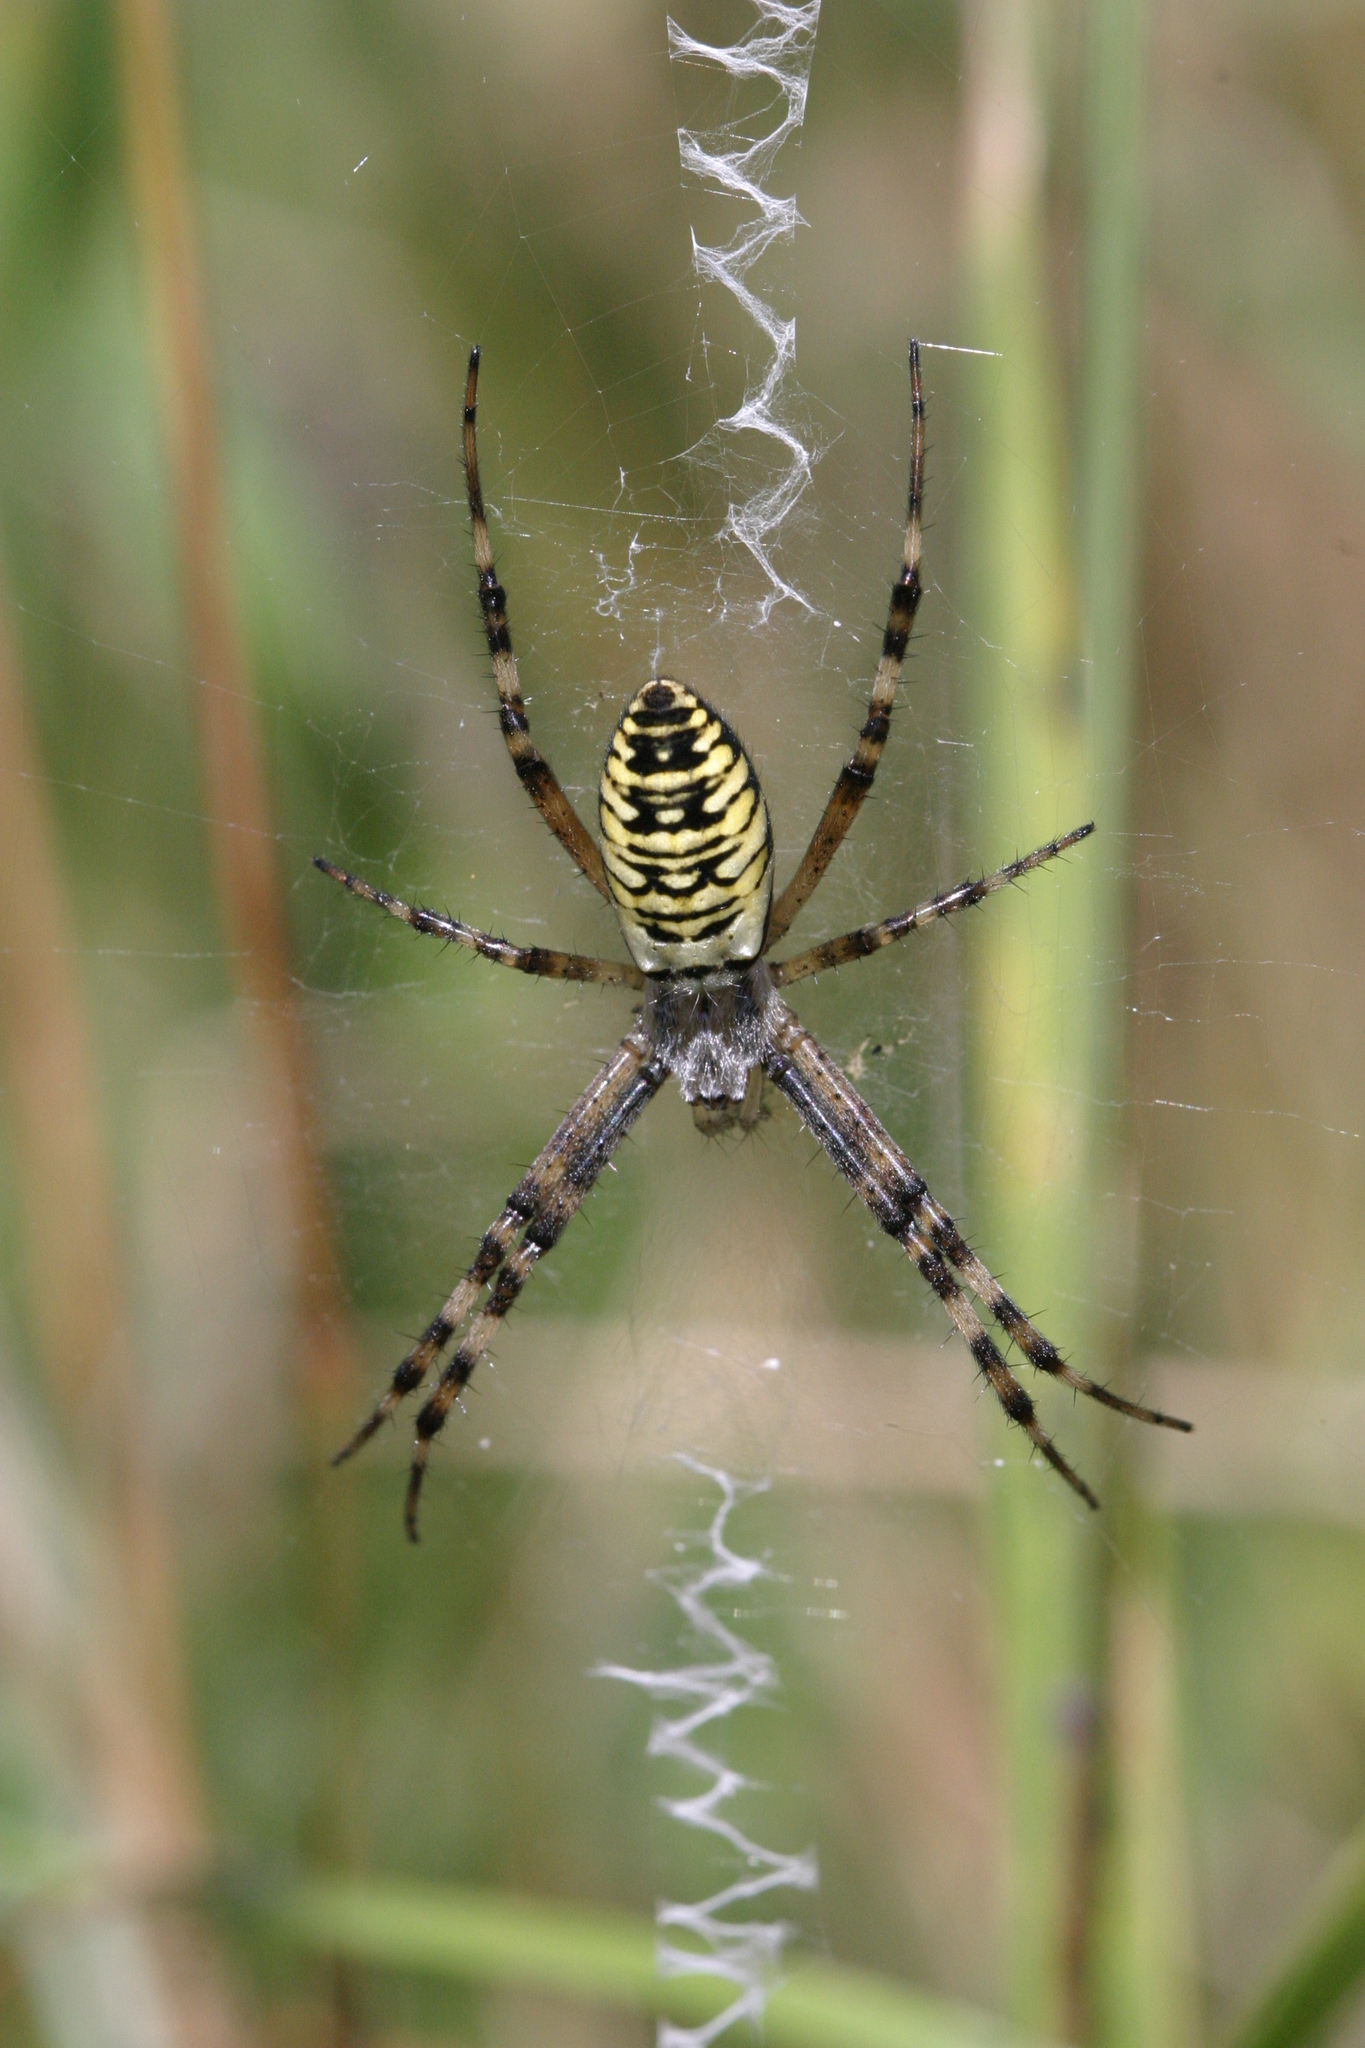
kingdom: Animalia
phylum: Arthropoda
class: Arachnida
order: Araneae
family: Araneidae
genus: Argiope
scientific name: Argiope bruennichi
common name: Wasp spider
